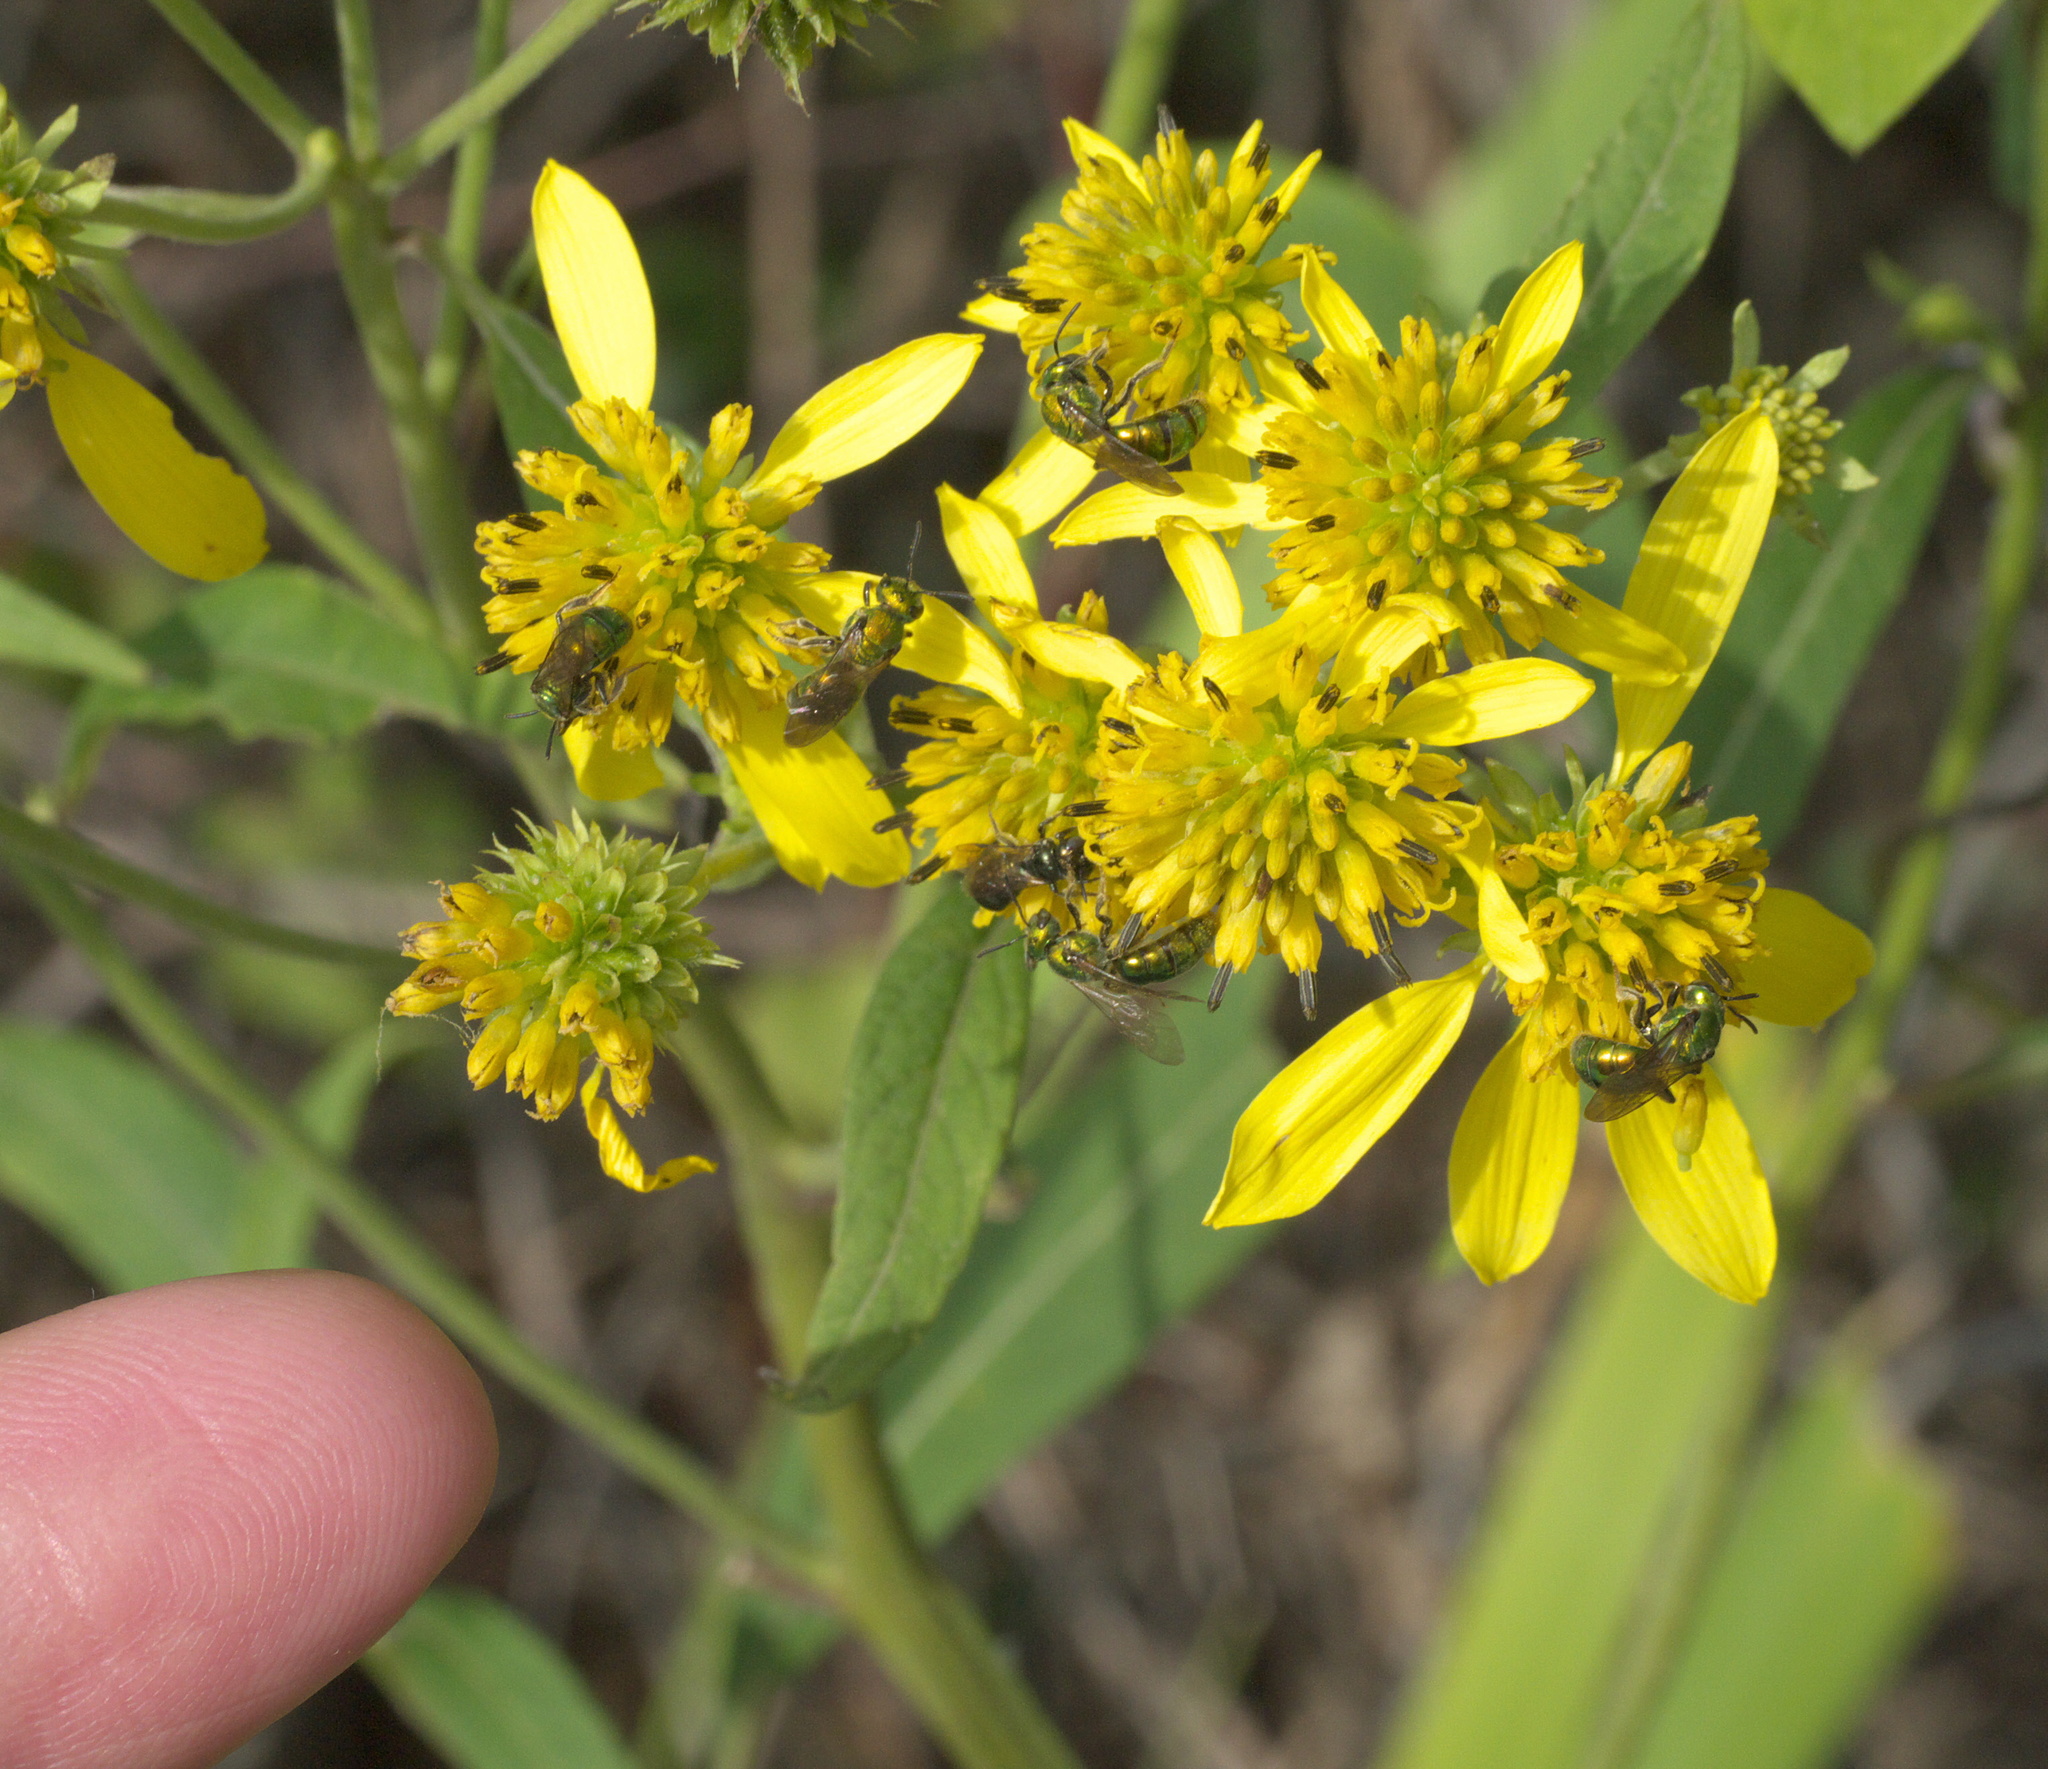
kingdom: Animalia
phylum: Arthropoda
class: Insecta
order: Hymenoptera
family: Halictidae
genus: Augochlora
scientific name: Augochlora pura
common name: Pure green sweat bee
